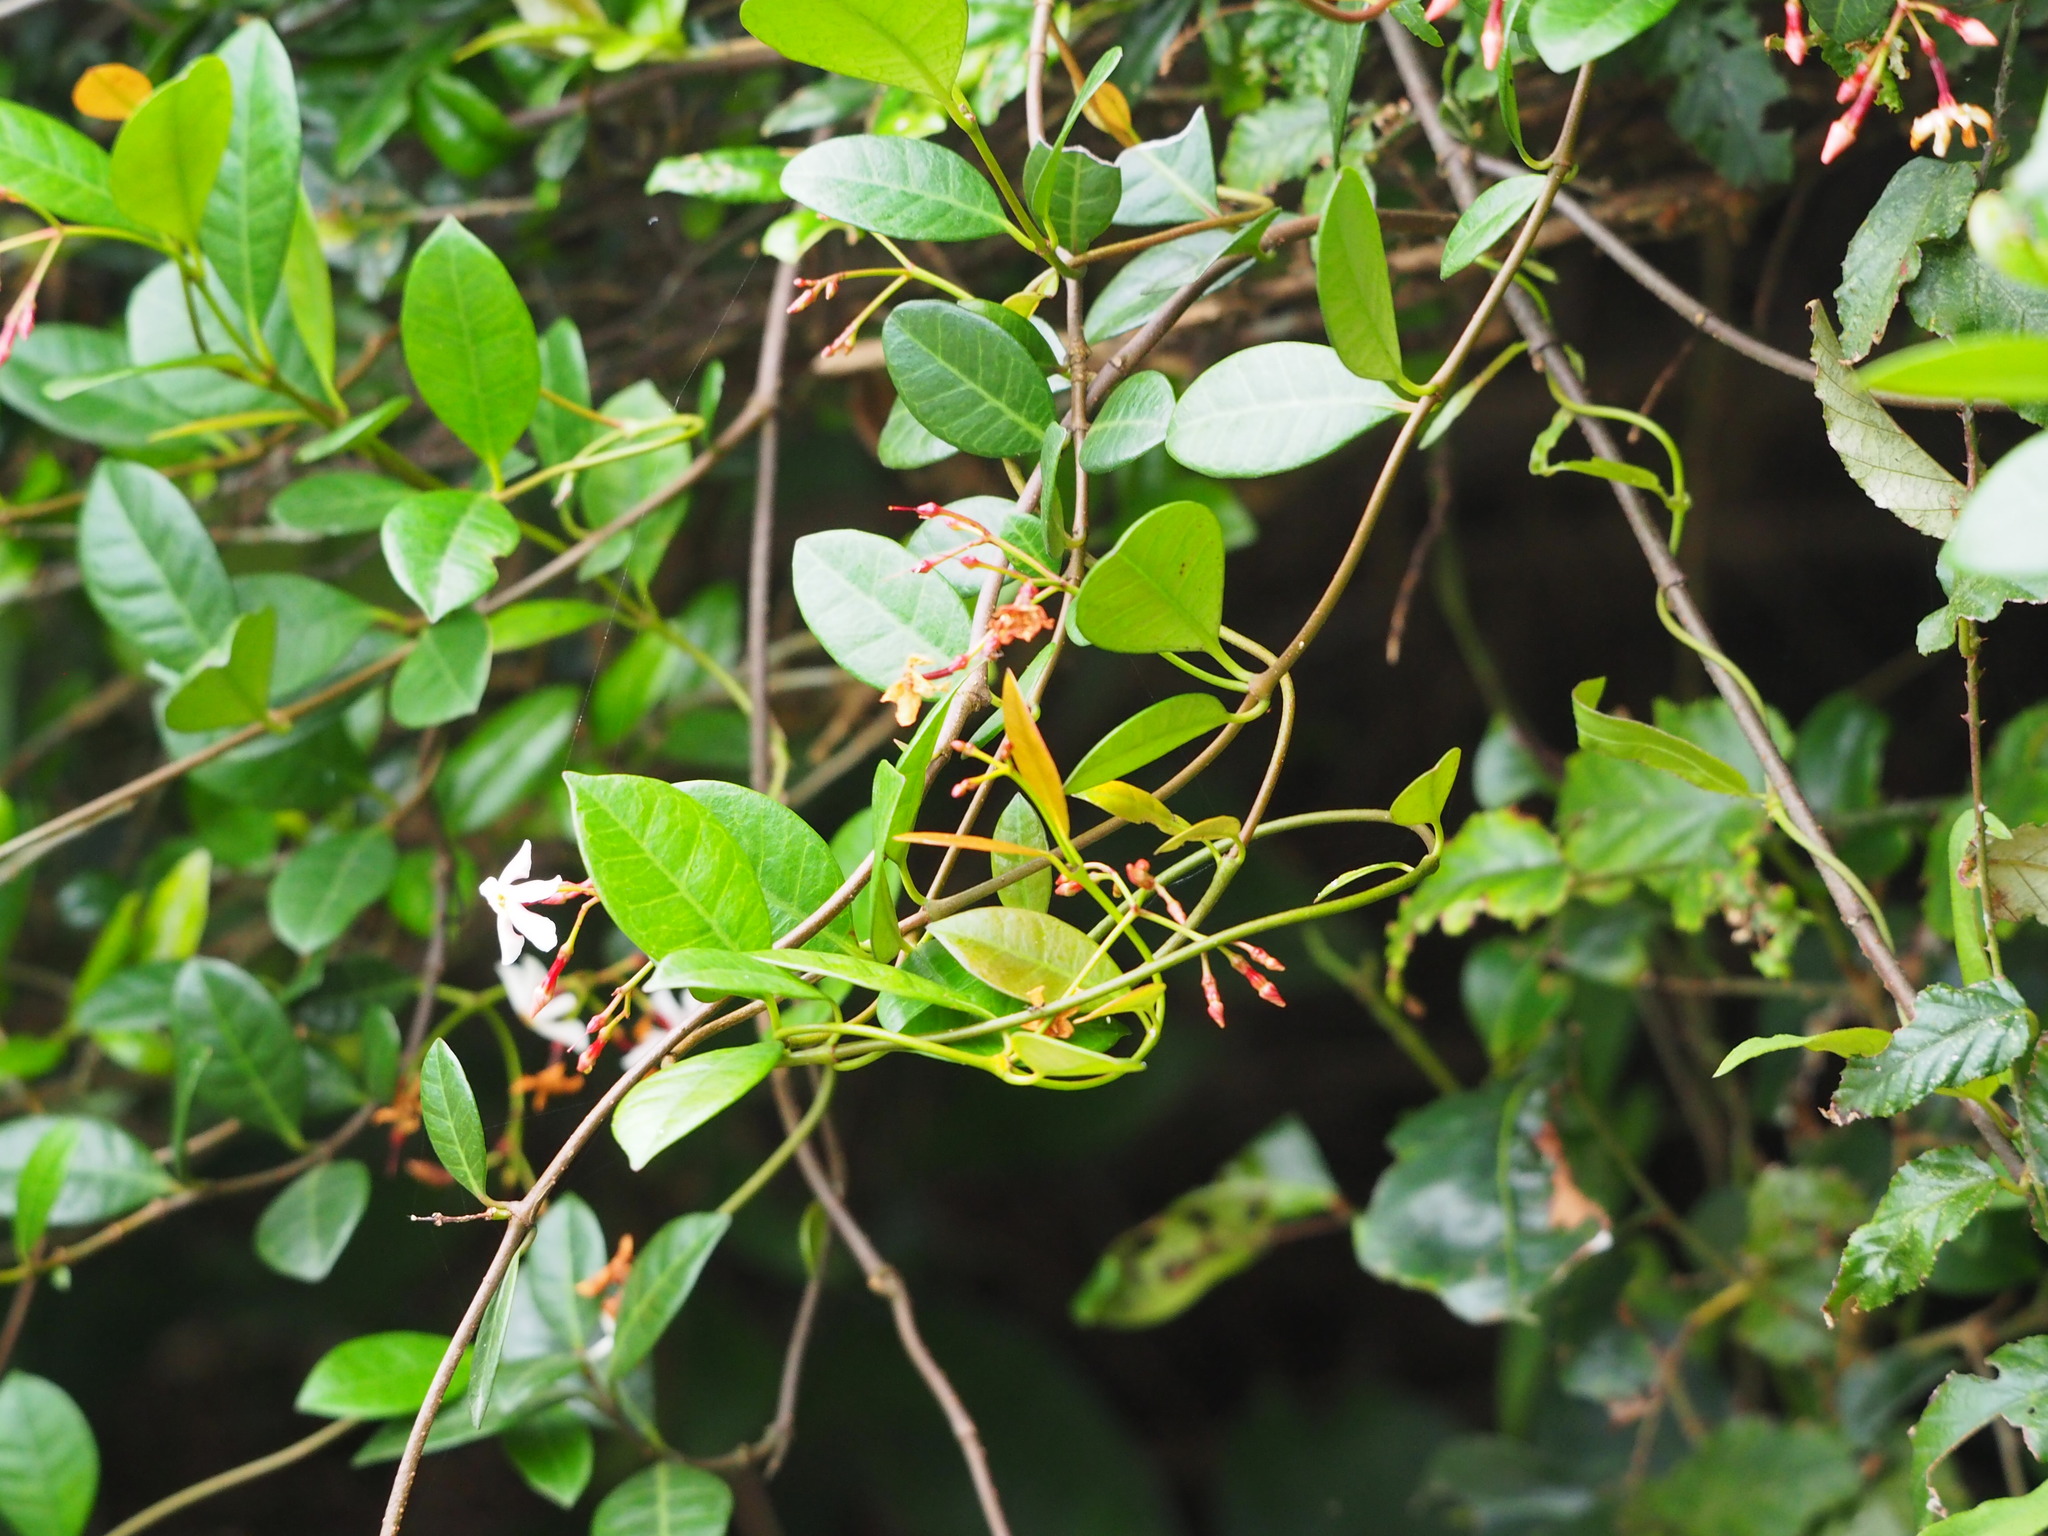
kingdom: Plantae
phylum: Tracheophyta
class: Magnoliopsida
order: Gentianales
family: Apocynaceae
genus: Trachelospermum
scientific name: Trachelospermum asiaticum
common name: Asiatic jasmine
